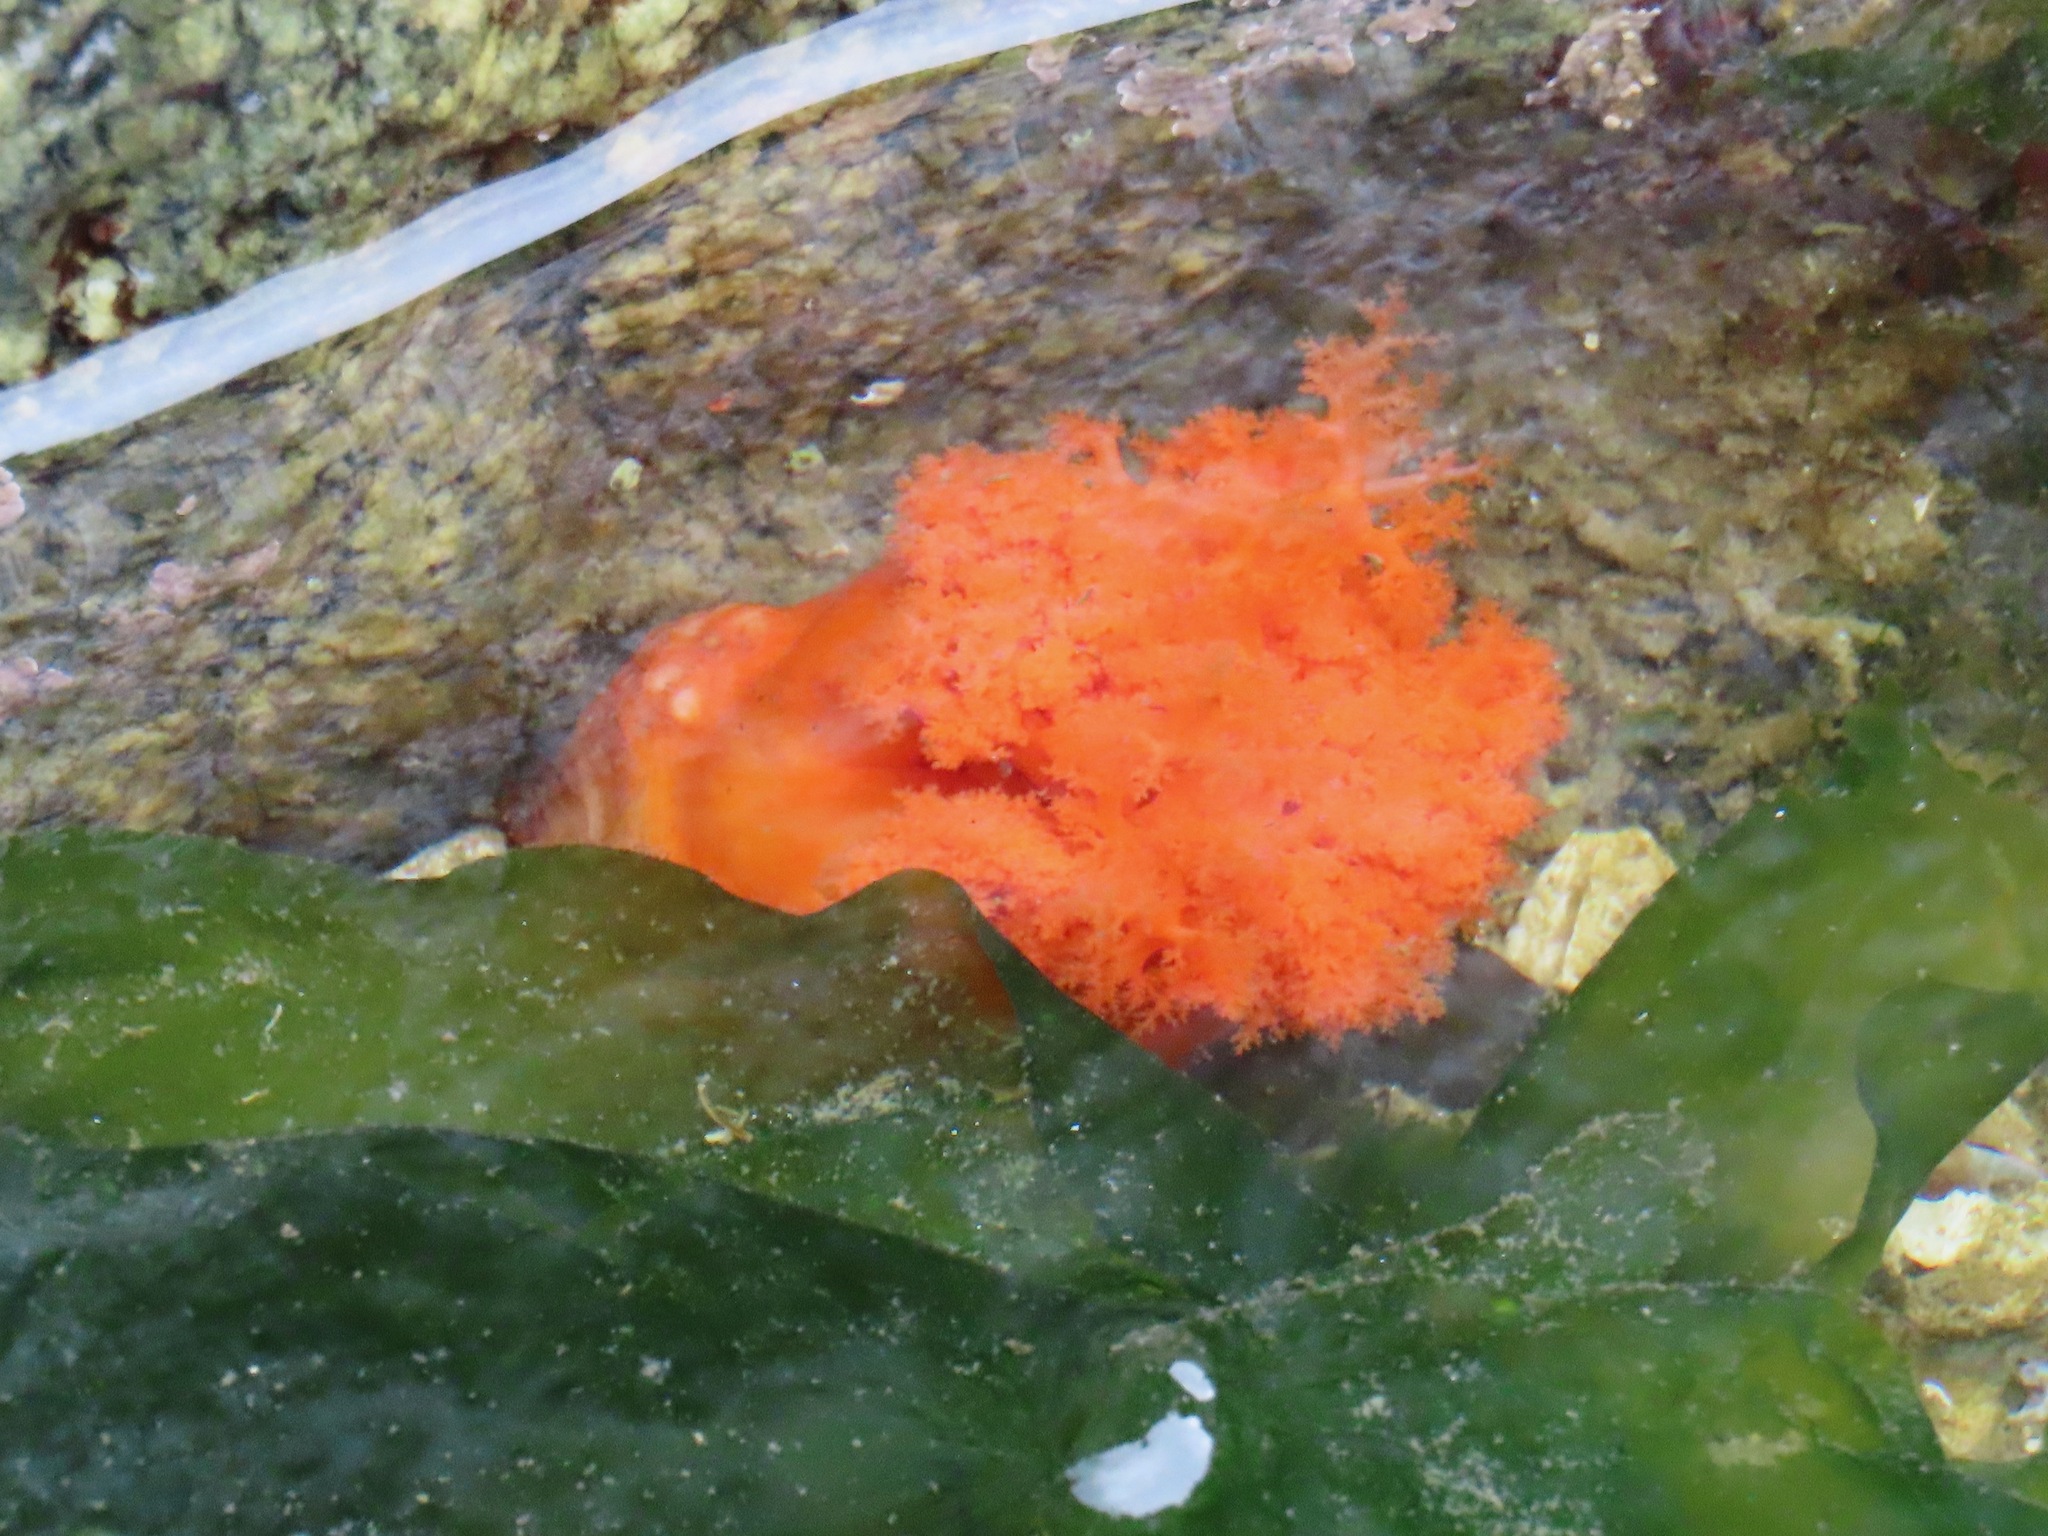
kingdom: Animalia
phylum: Echinodermata
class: Holothuroidea
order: Dendrochirotida
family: Cucumariidae
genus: Cucumaria
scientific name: Cucumaria miniata
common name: Orange sea cucumber
